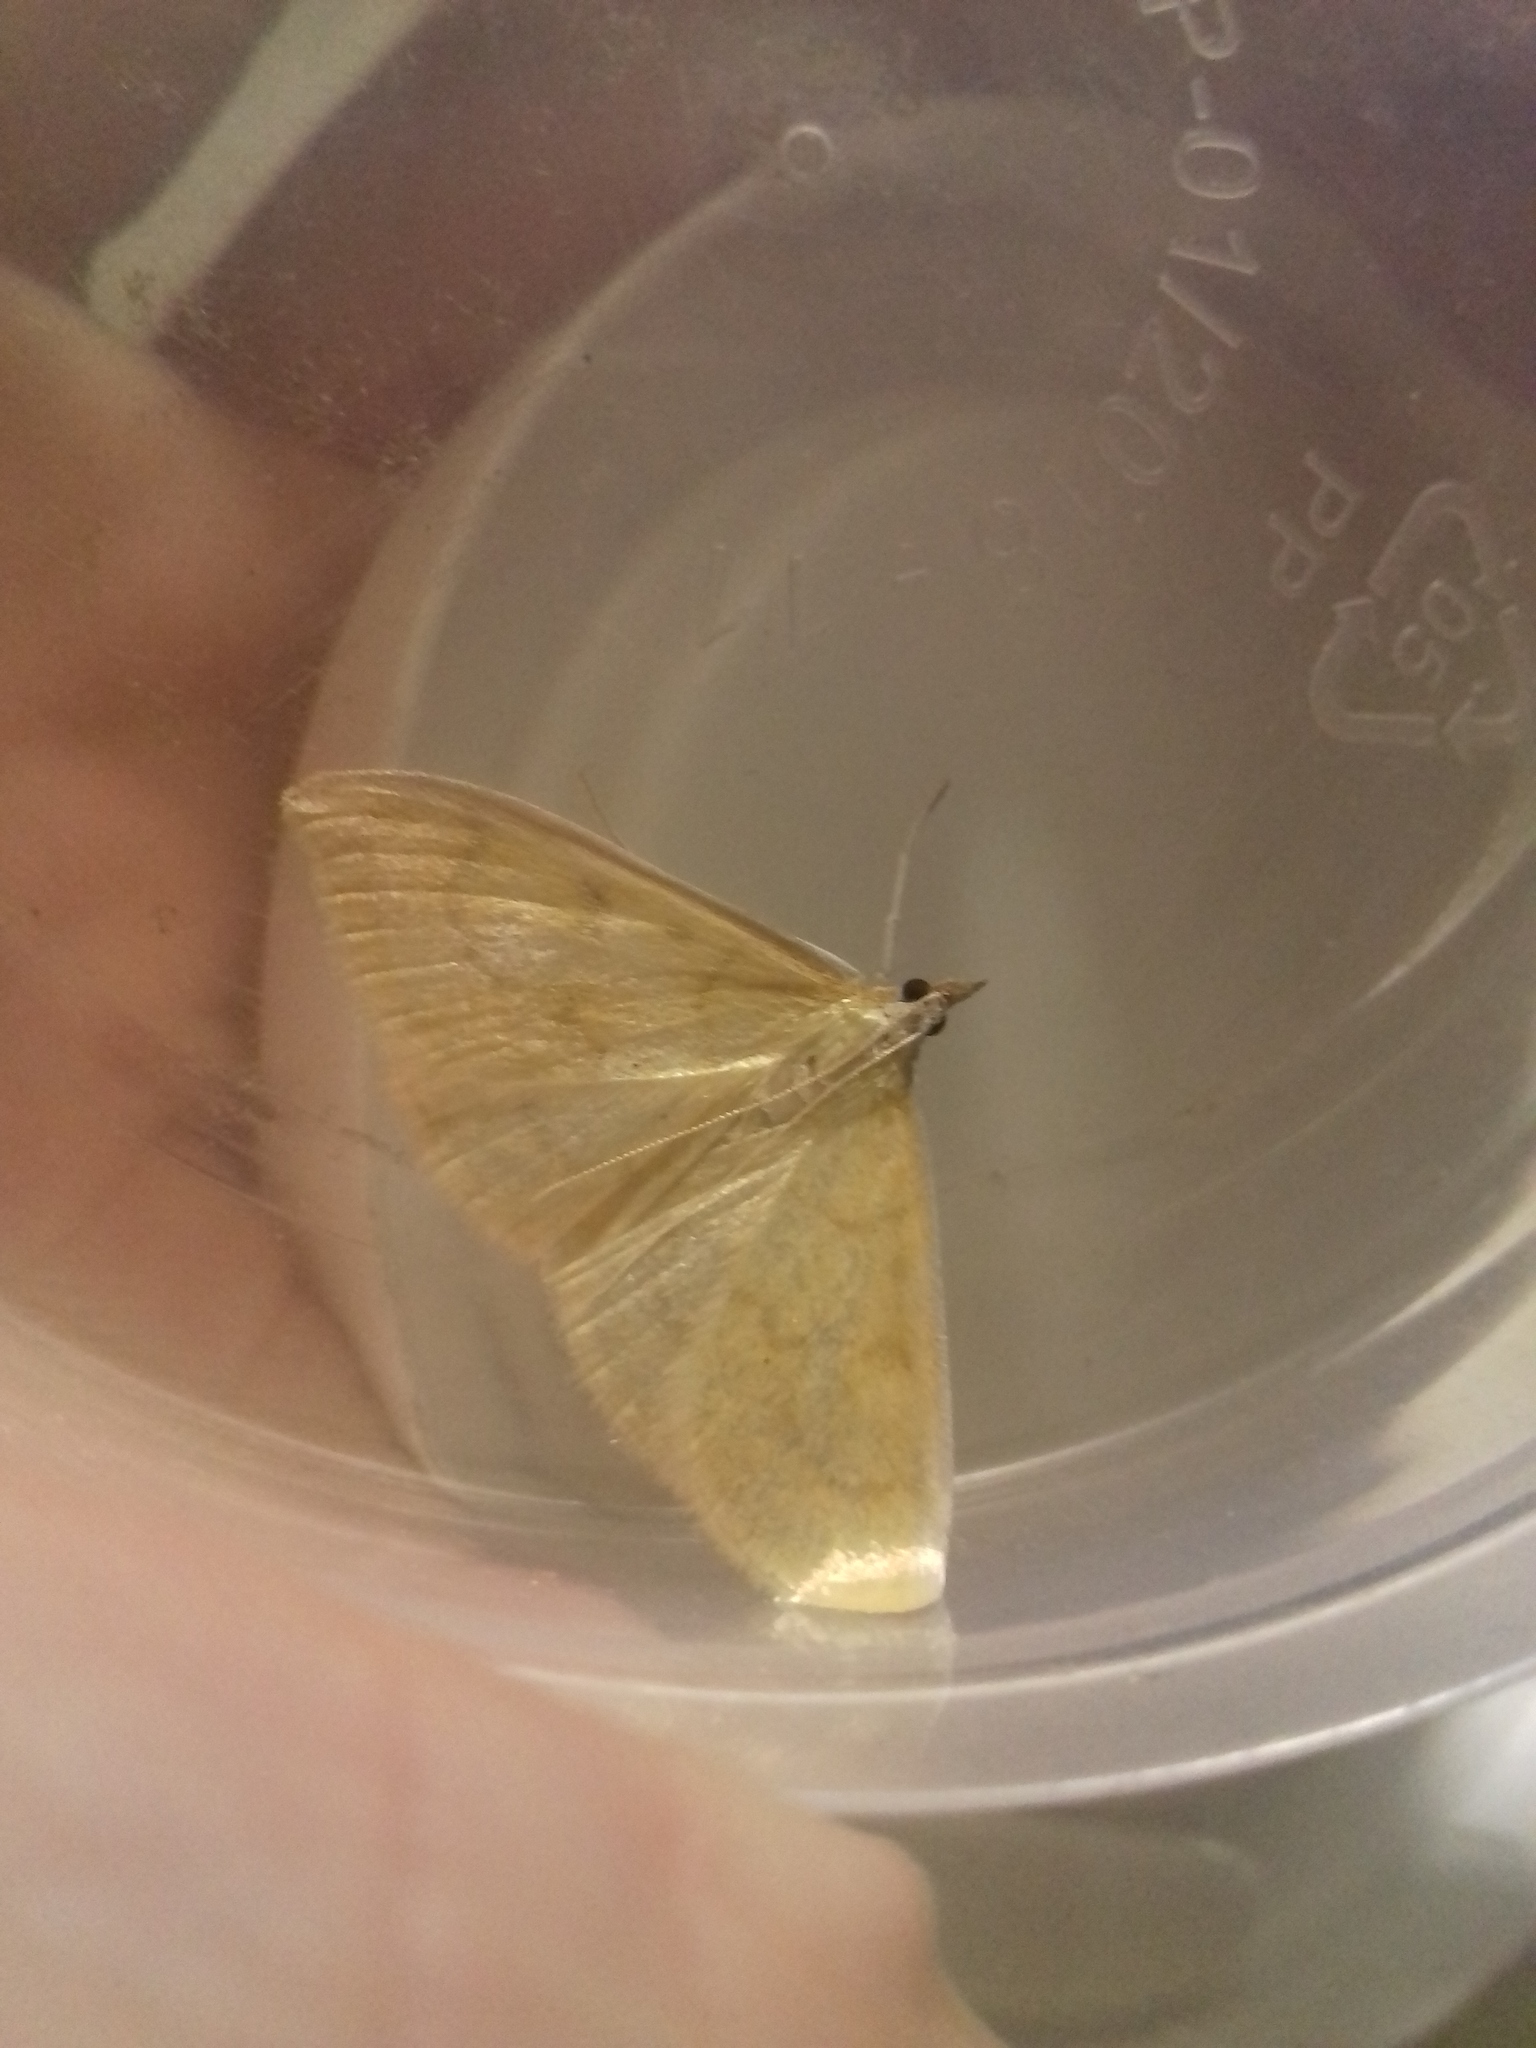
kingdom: Animalia
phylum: Arthropoda
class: Insecta
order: Lepidoptera
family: Crambidae
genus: Paratalanta
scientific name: Paratalanta hyalinalis
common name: Translucent pearl
